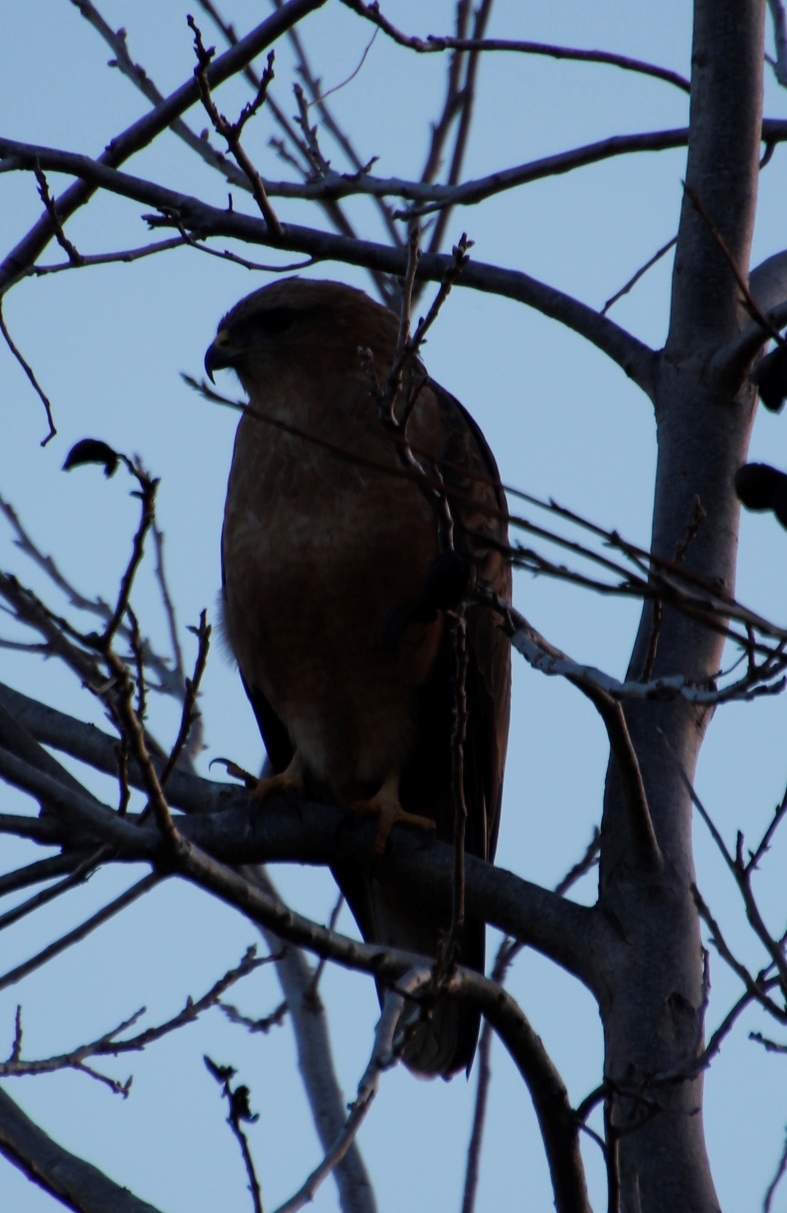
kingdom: Animalia
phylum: Chordata
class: Aves
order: Accipitriformes
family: Accipitridae
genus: Buteo
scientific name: Buteo buteo
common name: Common buzzard
